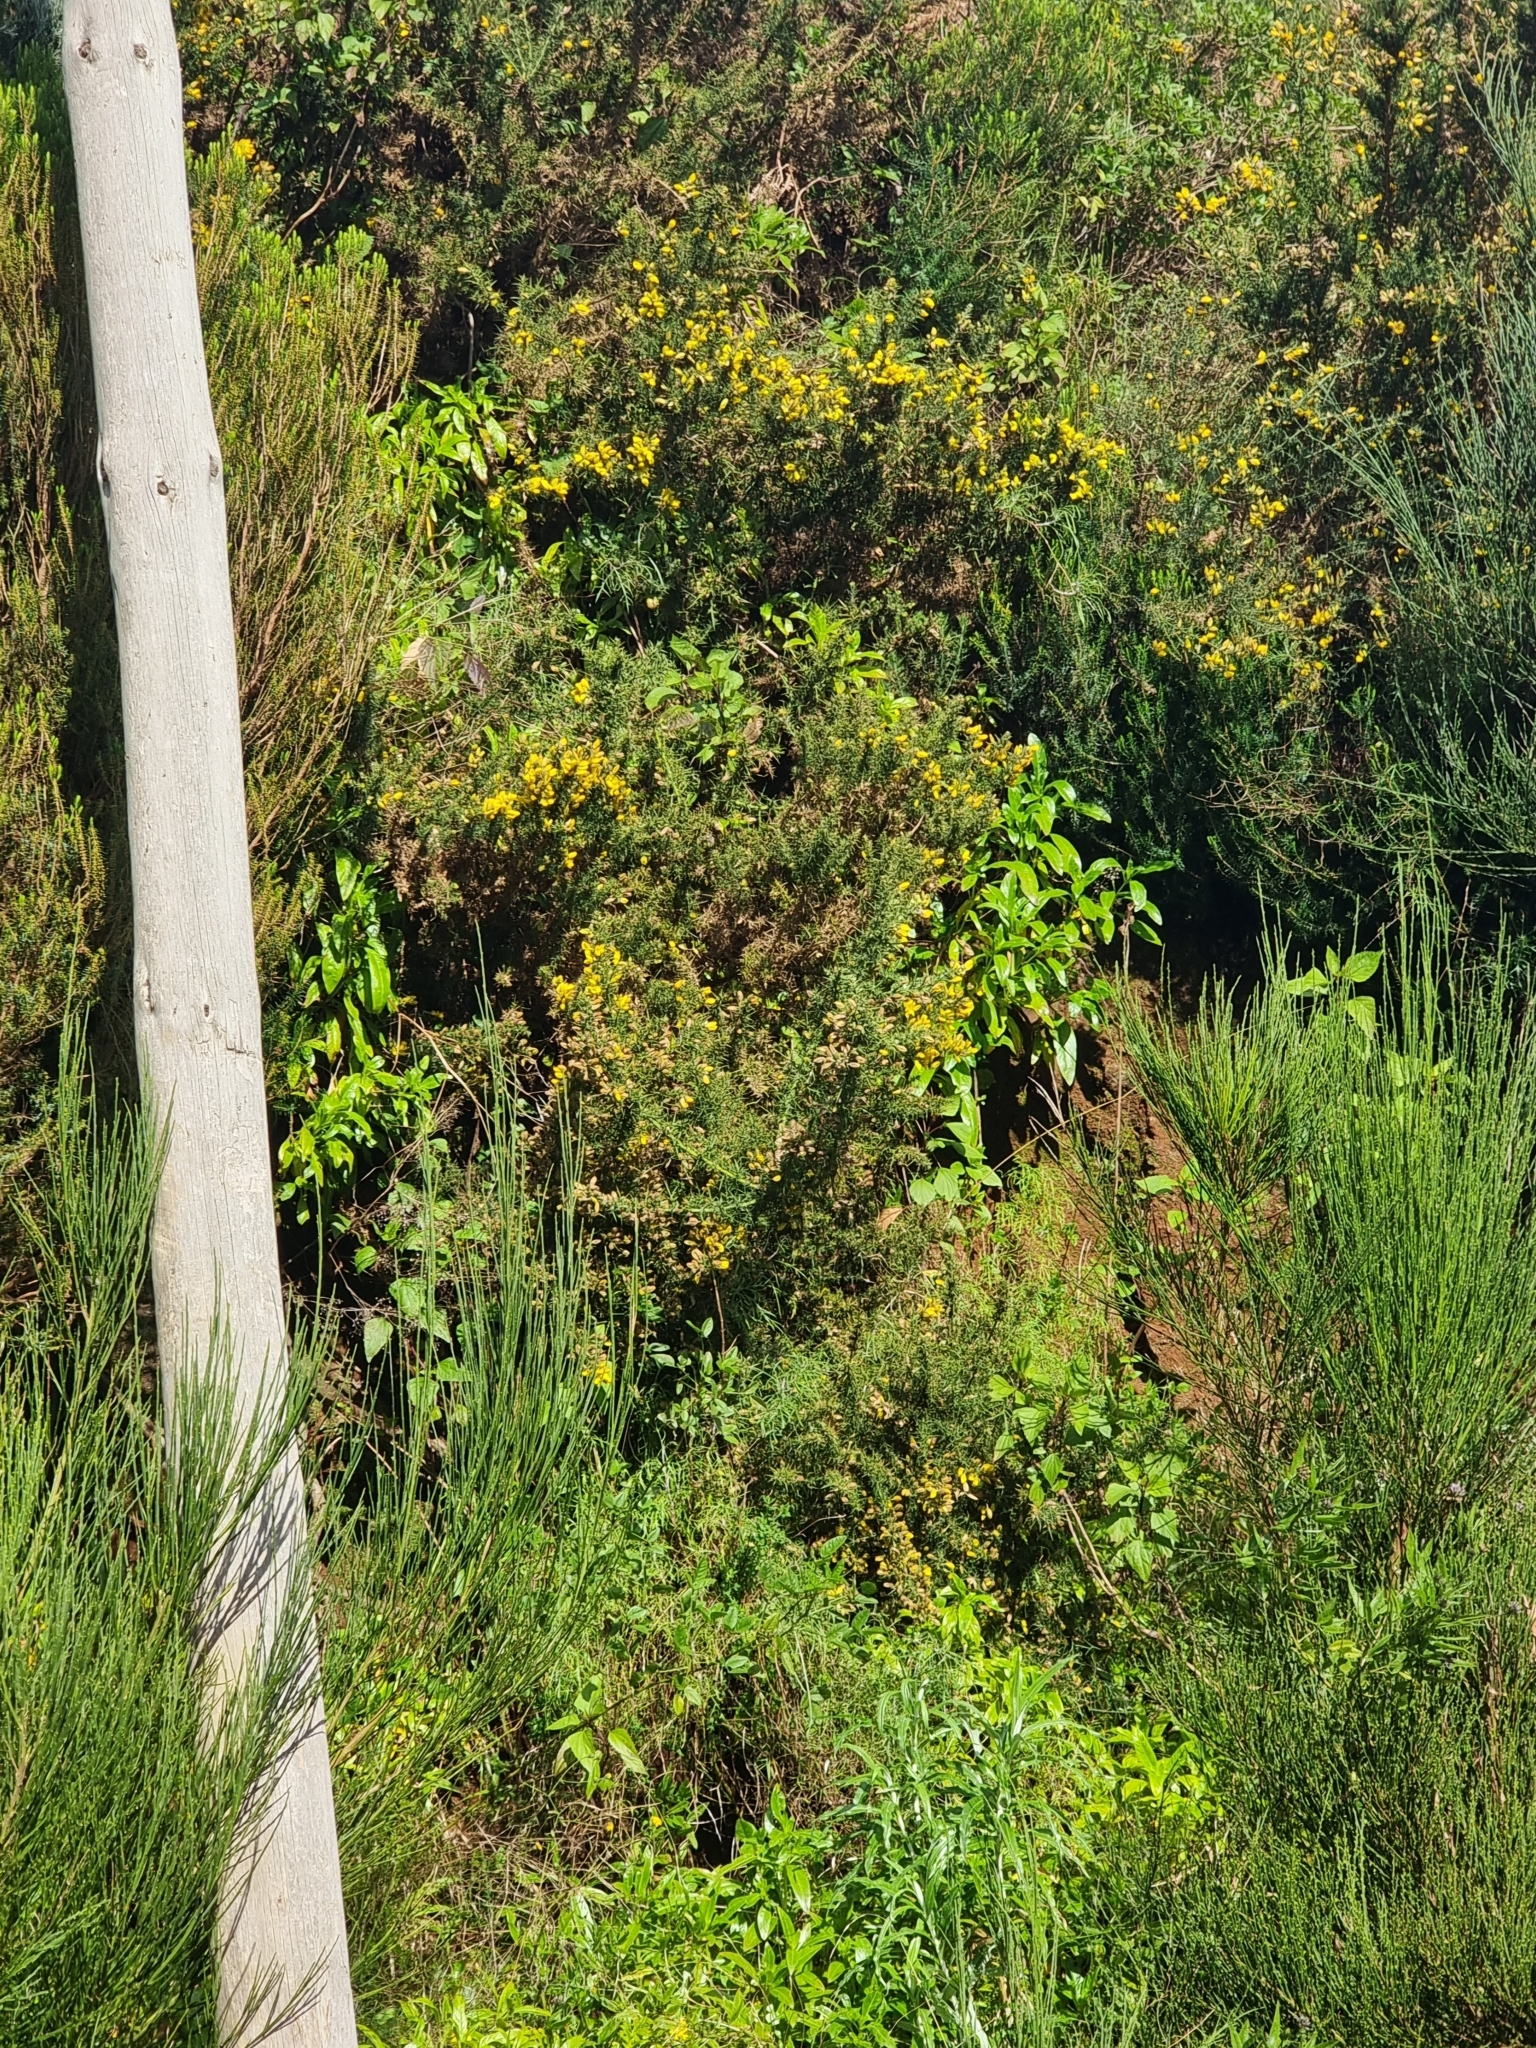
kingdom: Plantae
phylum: Tracheophyta
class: Magnoliopsida
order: Fabales
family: Fabaceae
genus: Ulex
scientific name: Ulex europaeus
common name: Common gorse
